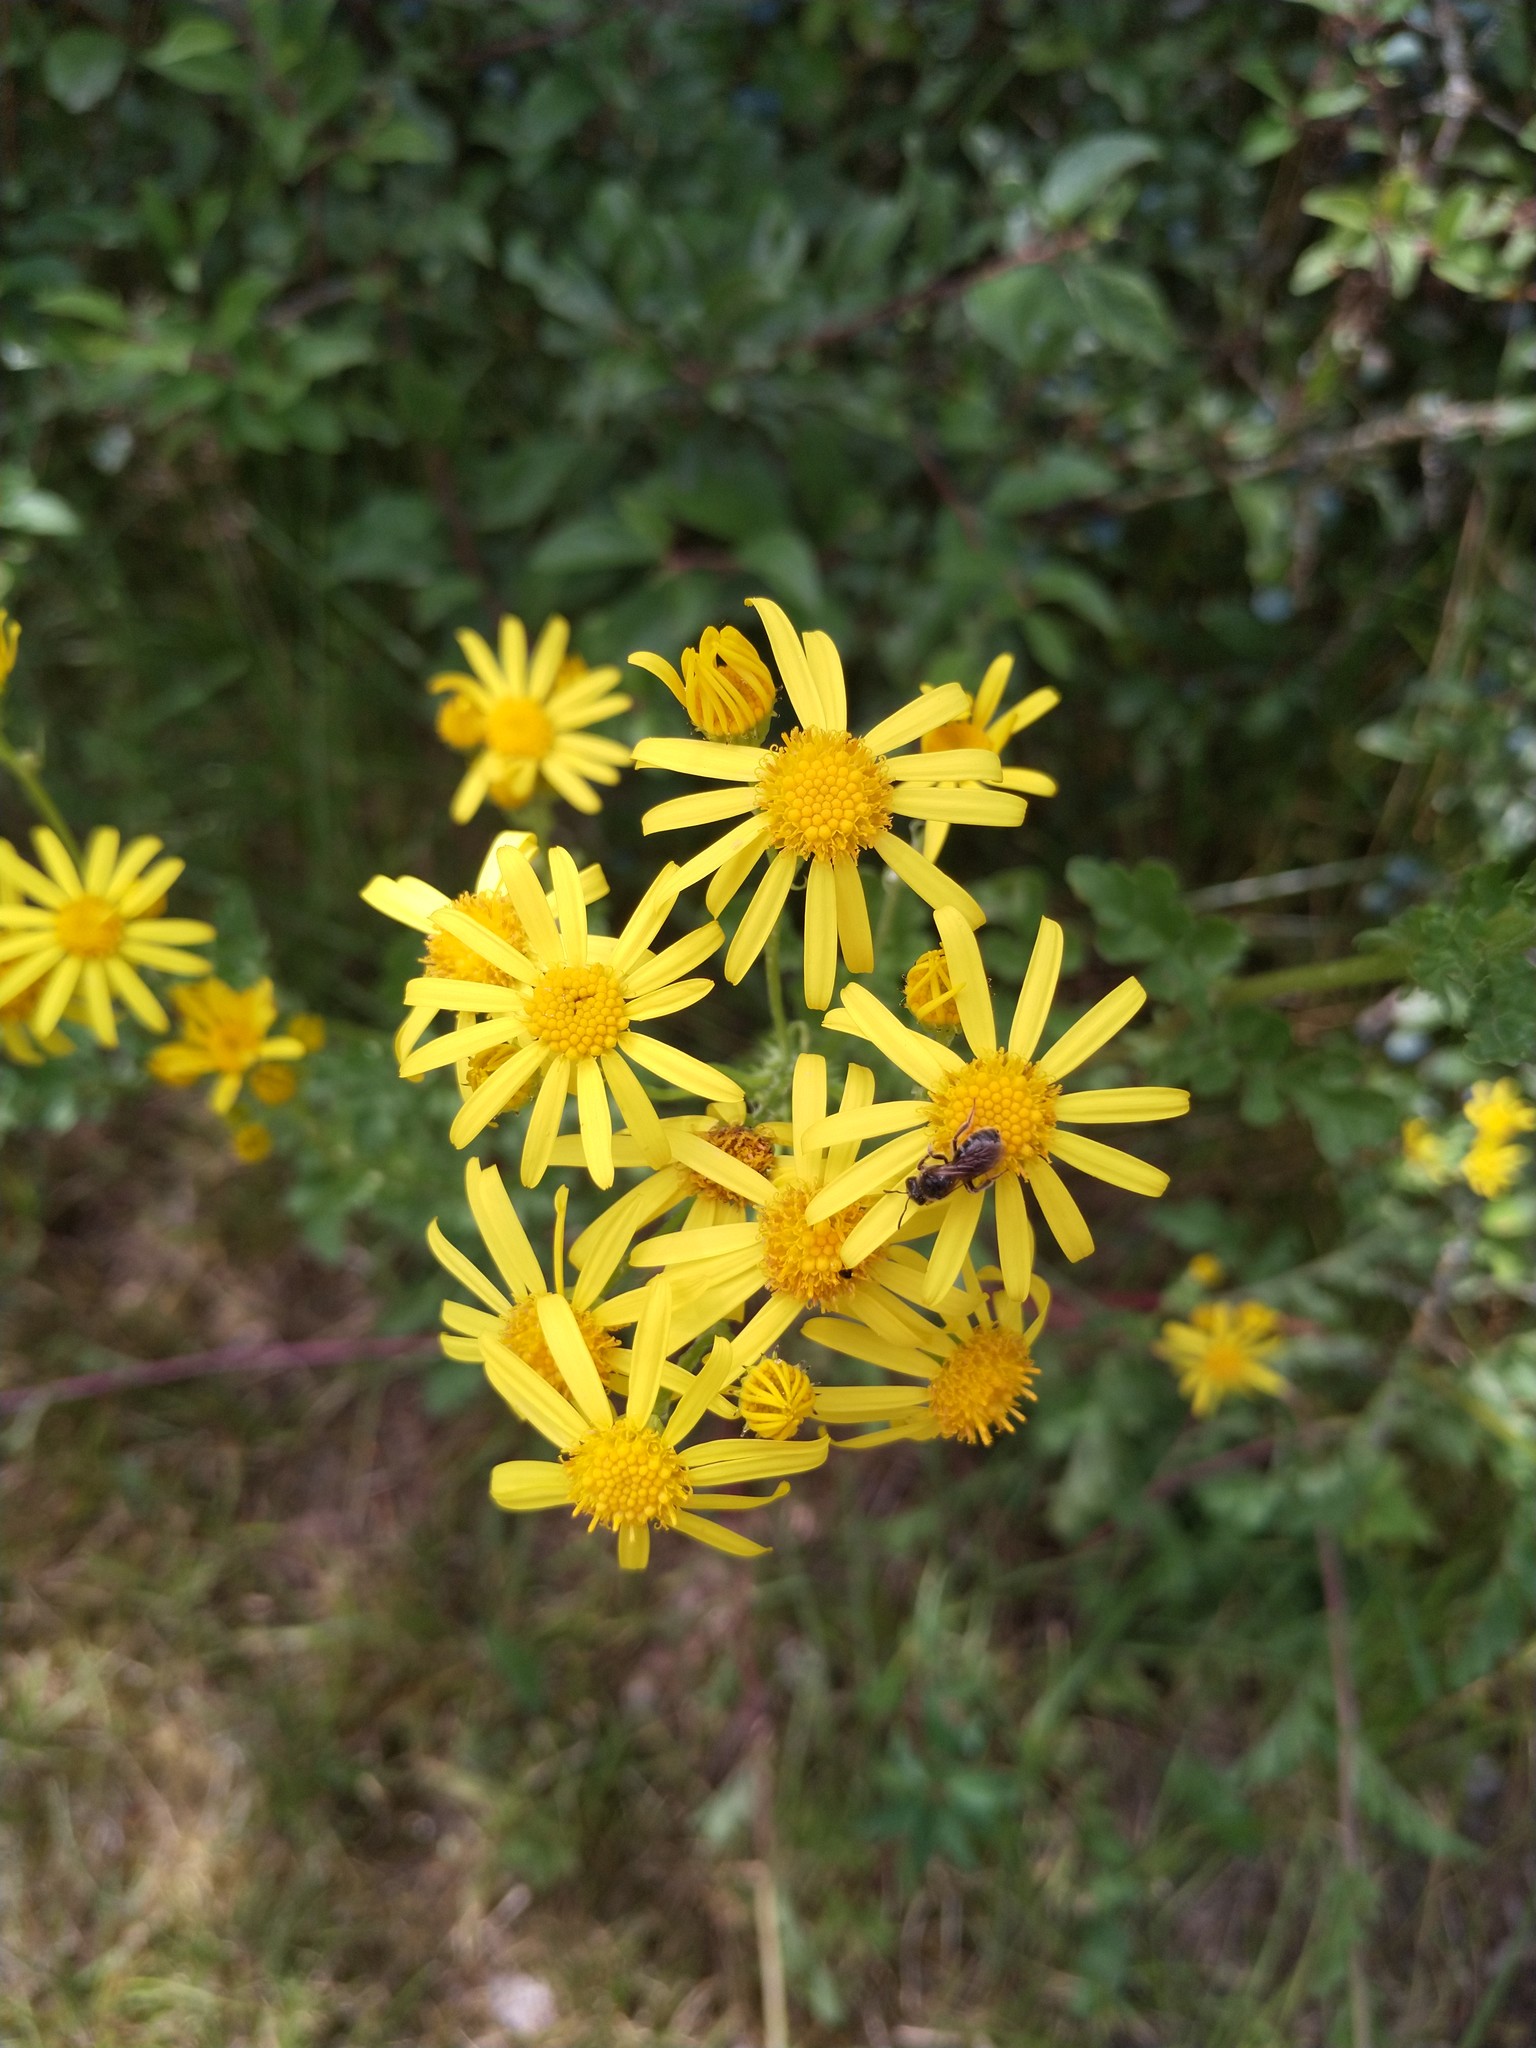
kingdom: Plantae
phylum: Tracheophyta
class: Magnoliopsida
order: Asterales
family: Asteraceae
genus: Jacobaea
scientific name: Jacobaea vulgaris
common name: Stinking willie
